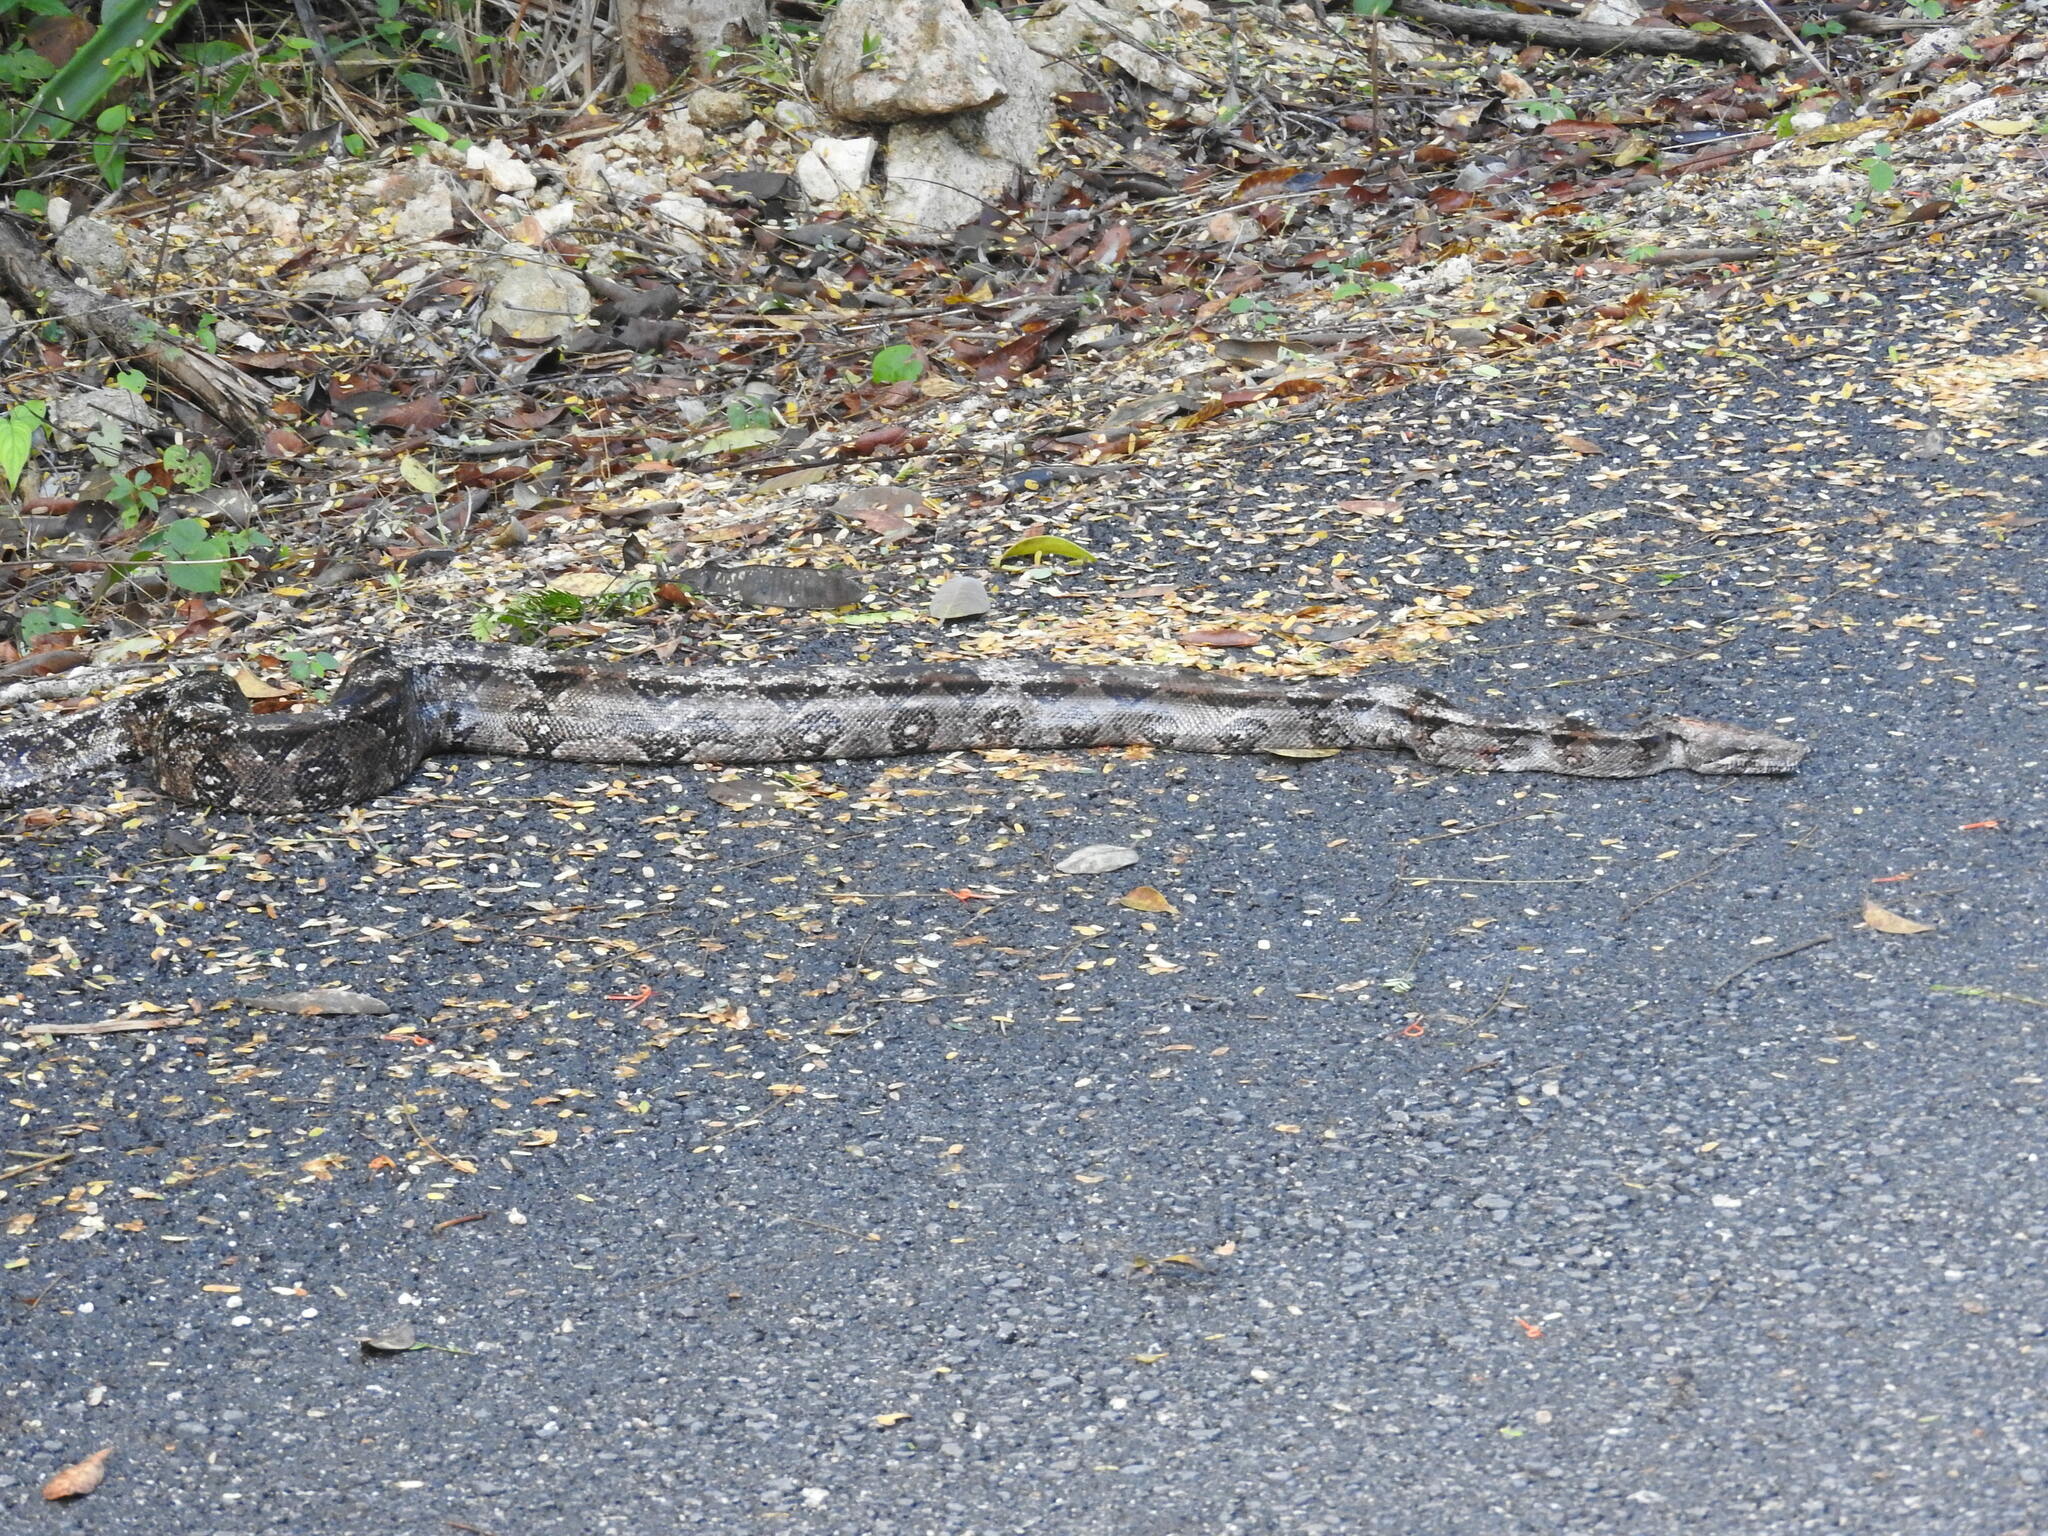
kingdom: Animalia
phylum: Chordata
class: Squamata
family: Boidae
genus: Boa
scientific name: Boa imperator
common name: Central american boa
